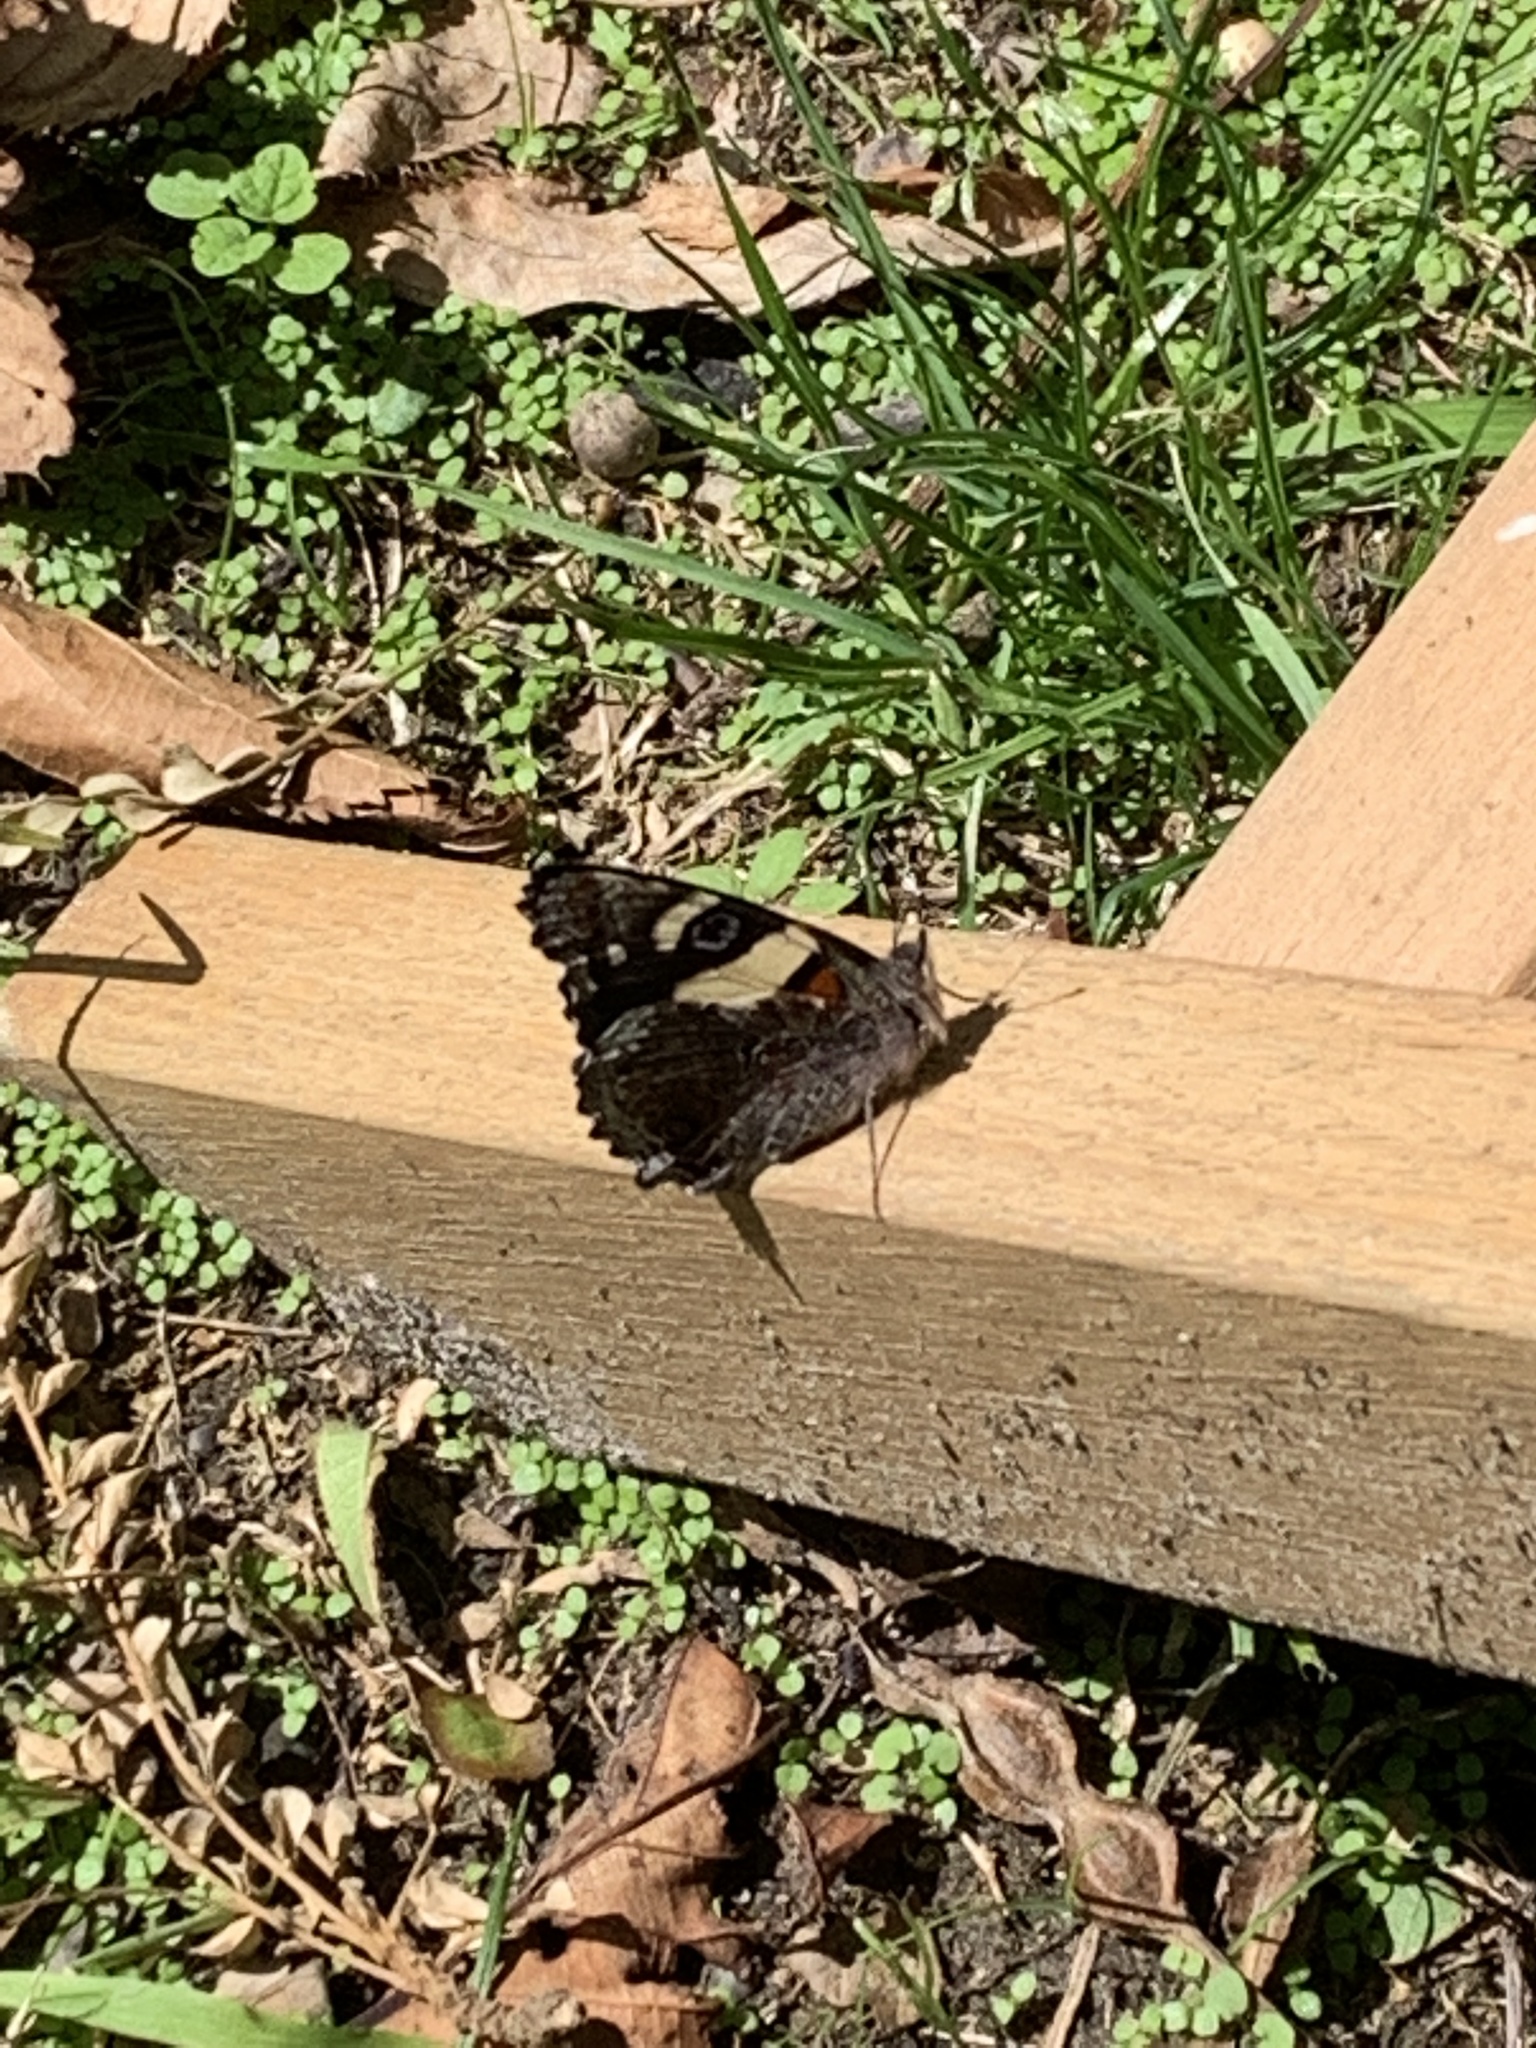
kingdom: Animalia
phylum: Arthropoda
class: Insecta
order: Lepidoptera
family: Nymphalidae
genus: Vanessa
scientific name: Vanessa itea
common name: Yellow admiral
